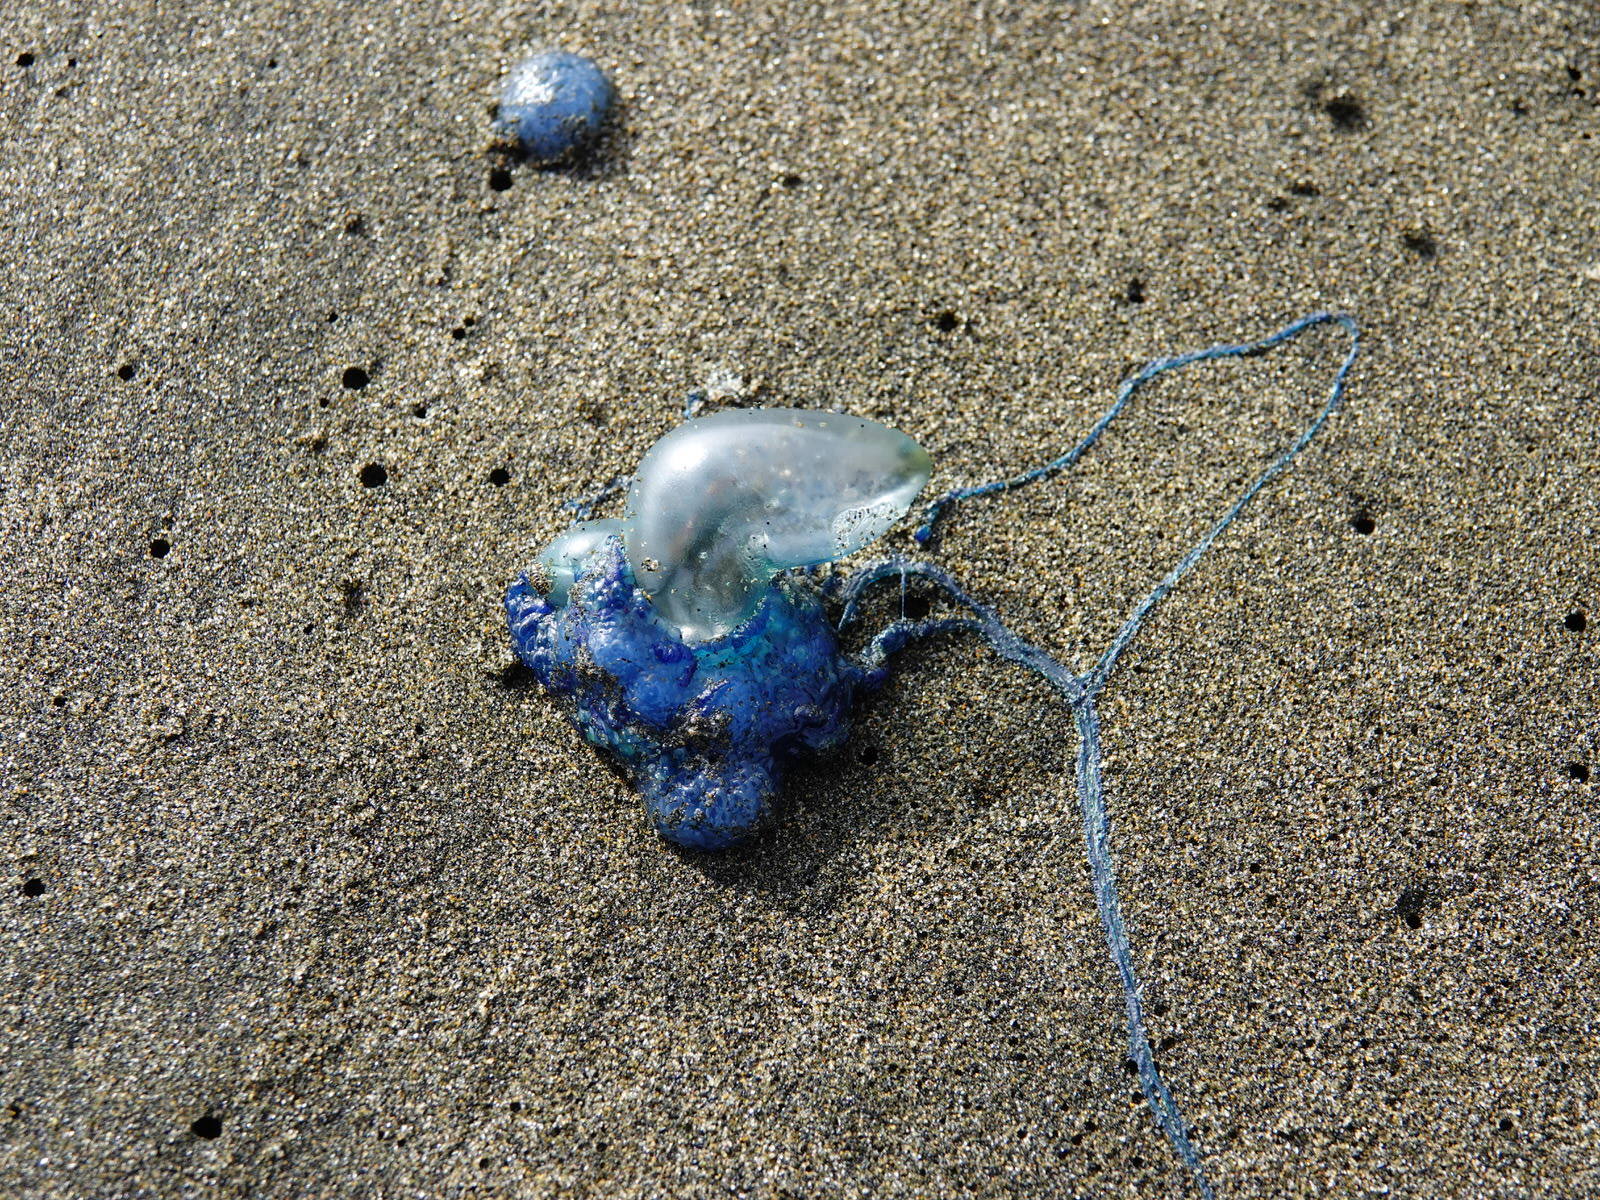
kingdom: Animalia
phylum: Cnidaria
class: Hydrozoa
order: Siphonophorae
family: Physaliidae
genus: Physalia
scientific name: Physalia physalis
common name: Portuguese man-of-war
